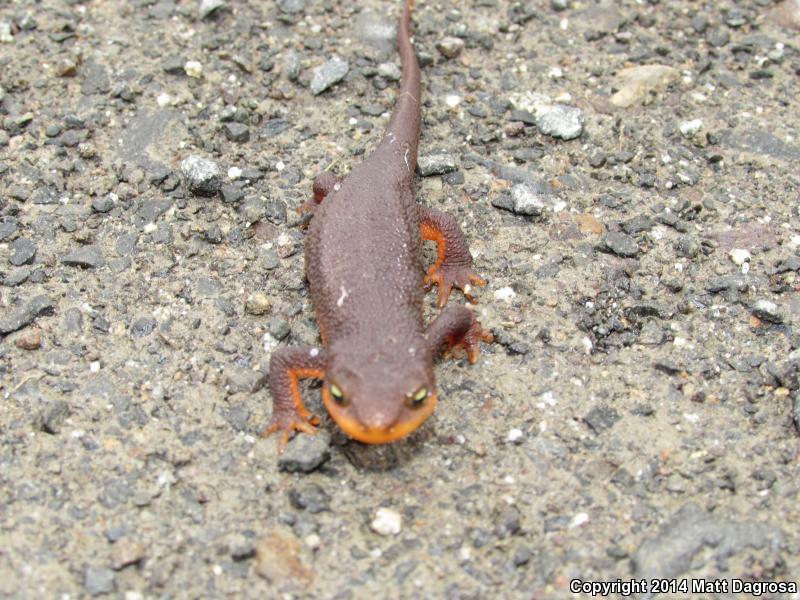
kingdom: Animalia
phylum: Chordata
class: Amphibia
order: Caudata
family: Salamandridae
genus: Taricha
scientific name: Taricha granulosa
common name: Roughskin newt
